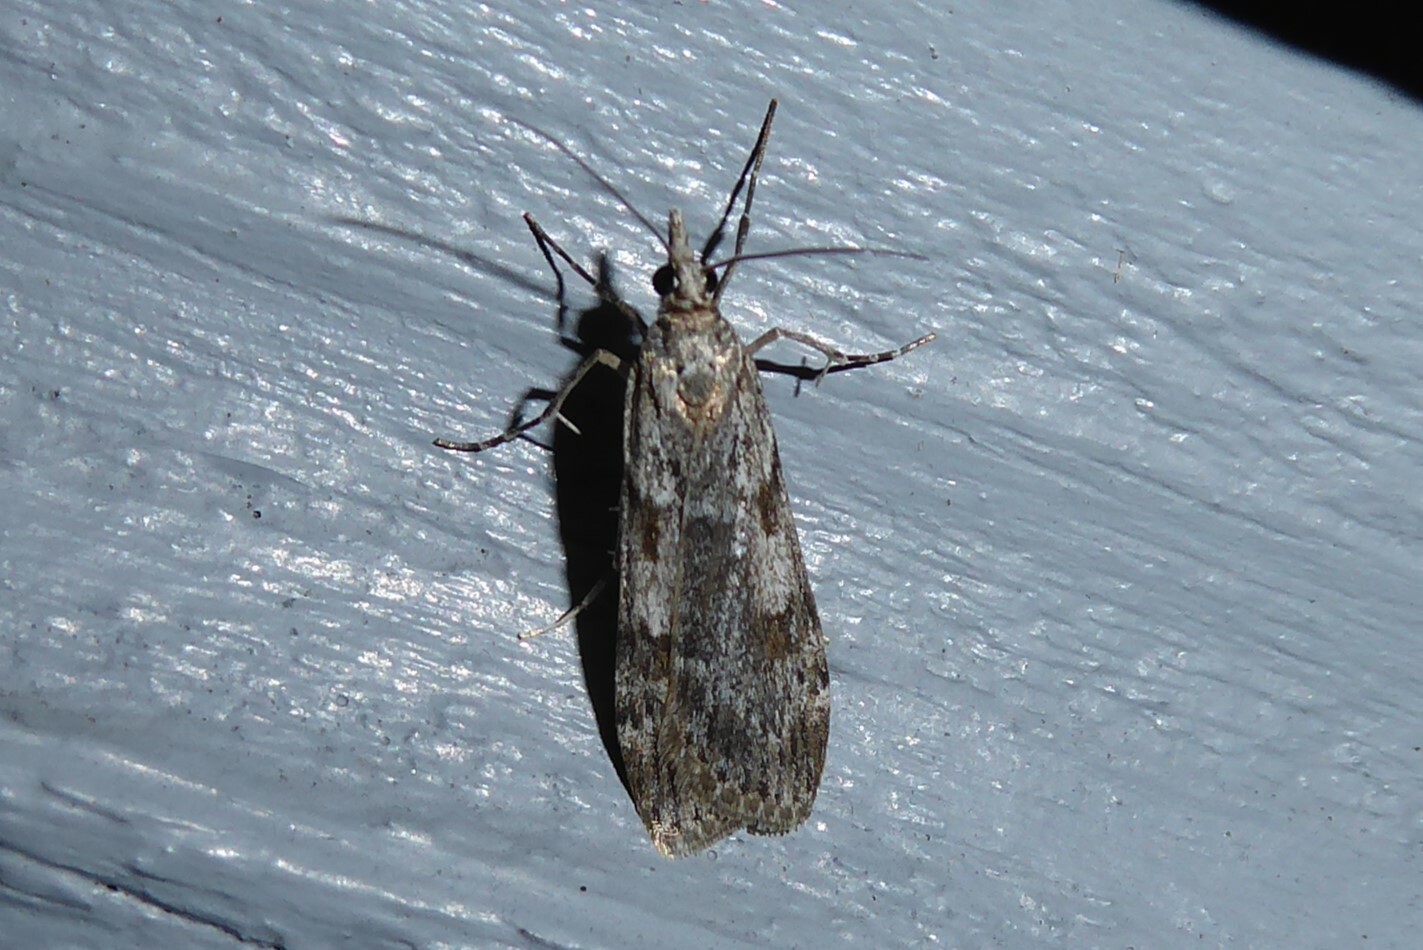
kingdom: Animalia
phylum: Arthropoda
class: Insecta
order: Lepidoptera
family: Crambidae
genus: Scoparia
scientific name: Scoparia halopis
